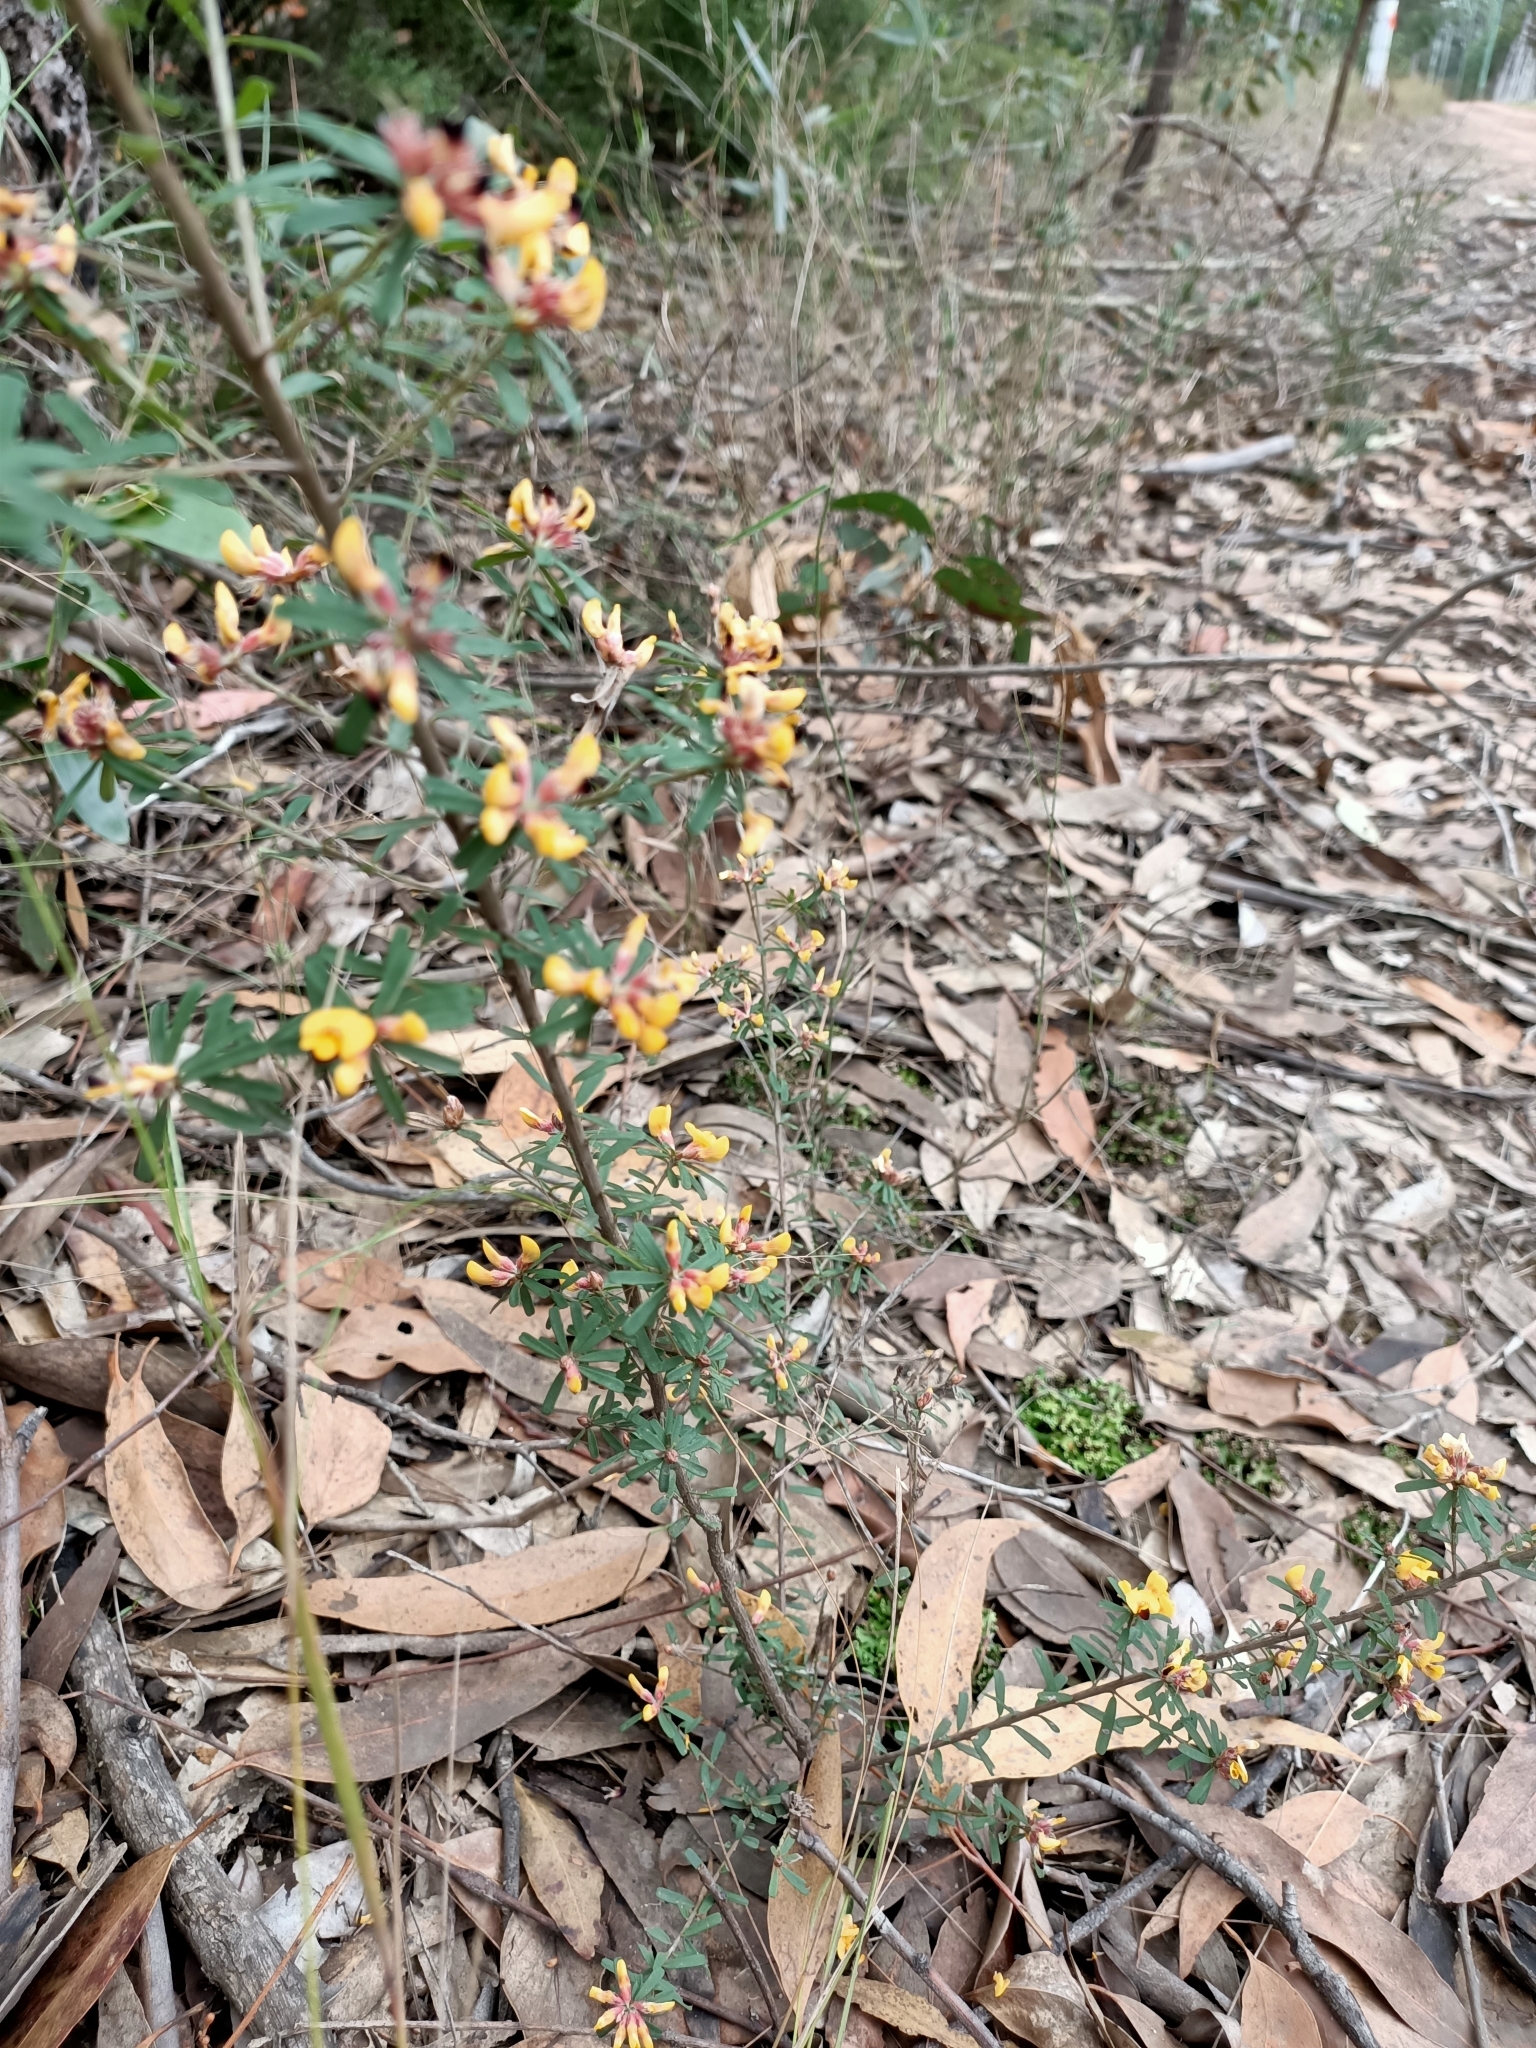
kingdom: Plantae
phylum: Tracheophyta
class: Magnoliopsida
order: Fabales
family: Fabaceae
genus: Pultenaea
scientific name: Pultenaea retusa
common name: Blunt bush-pea
